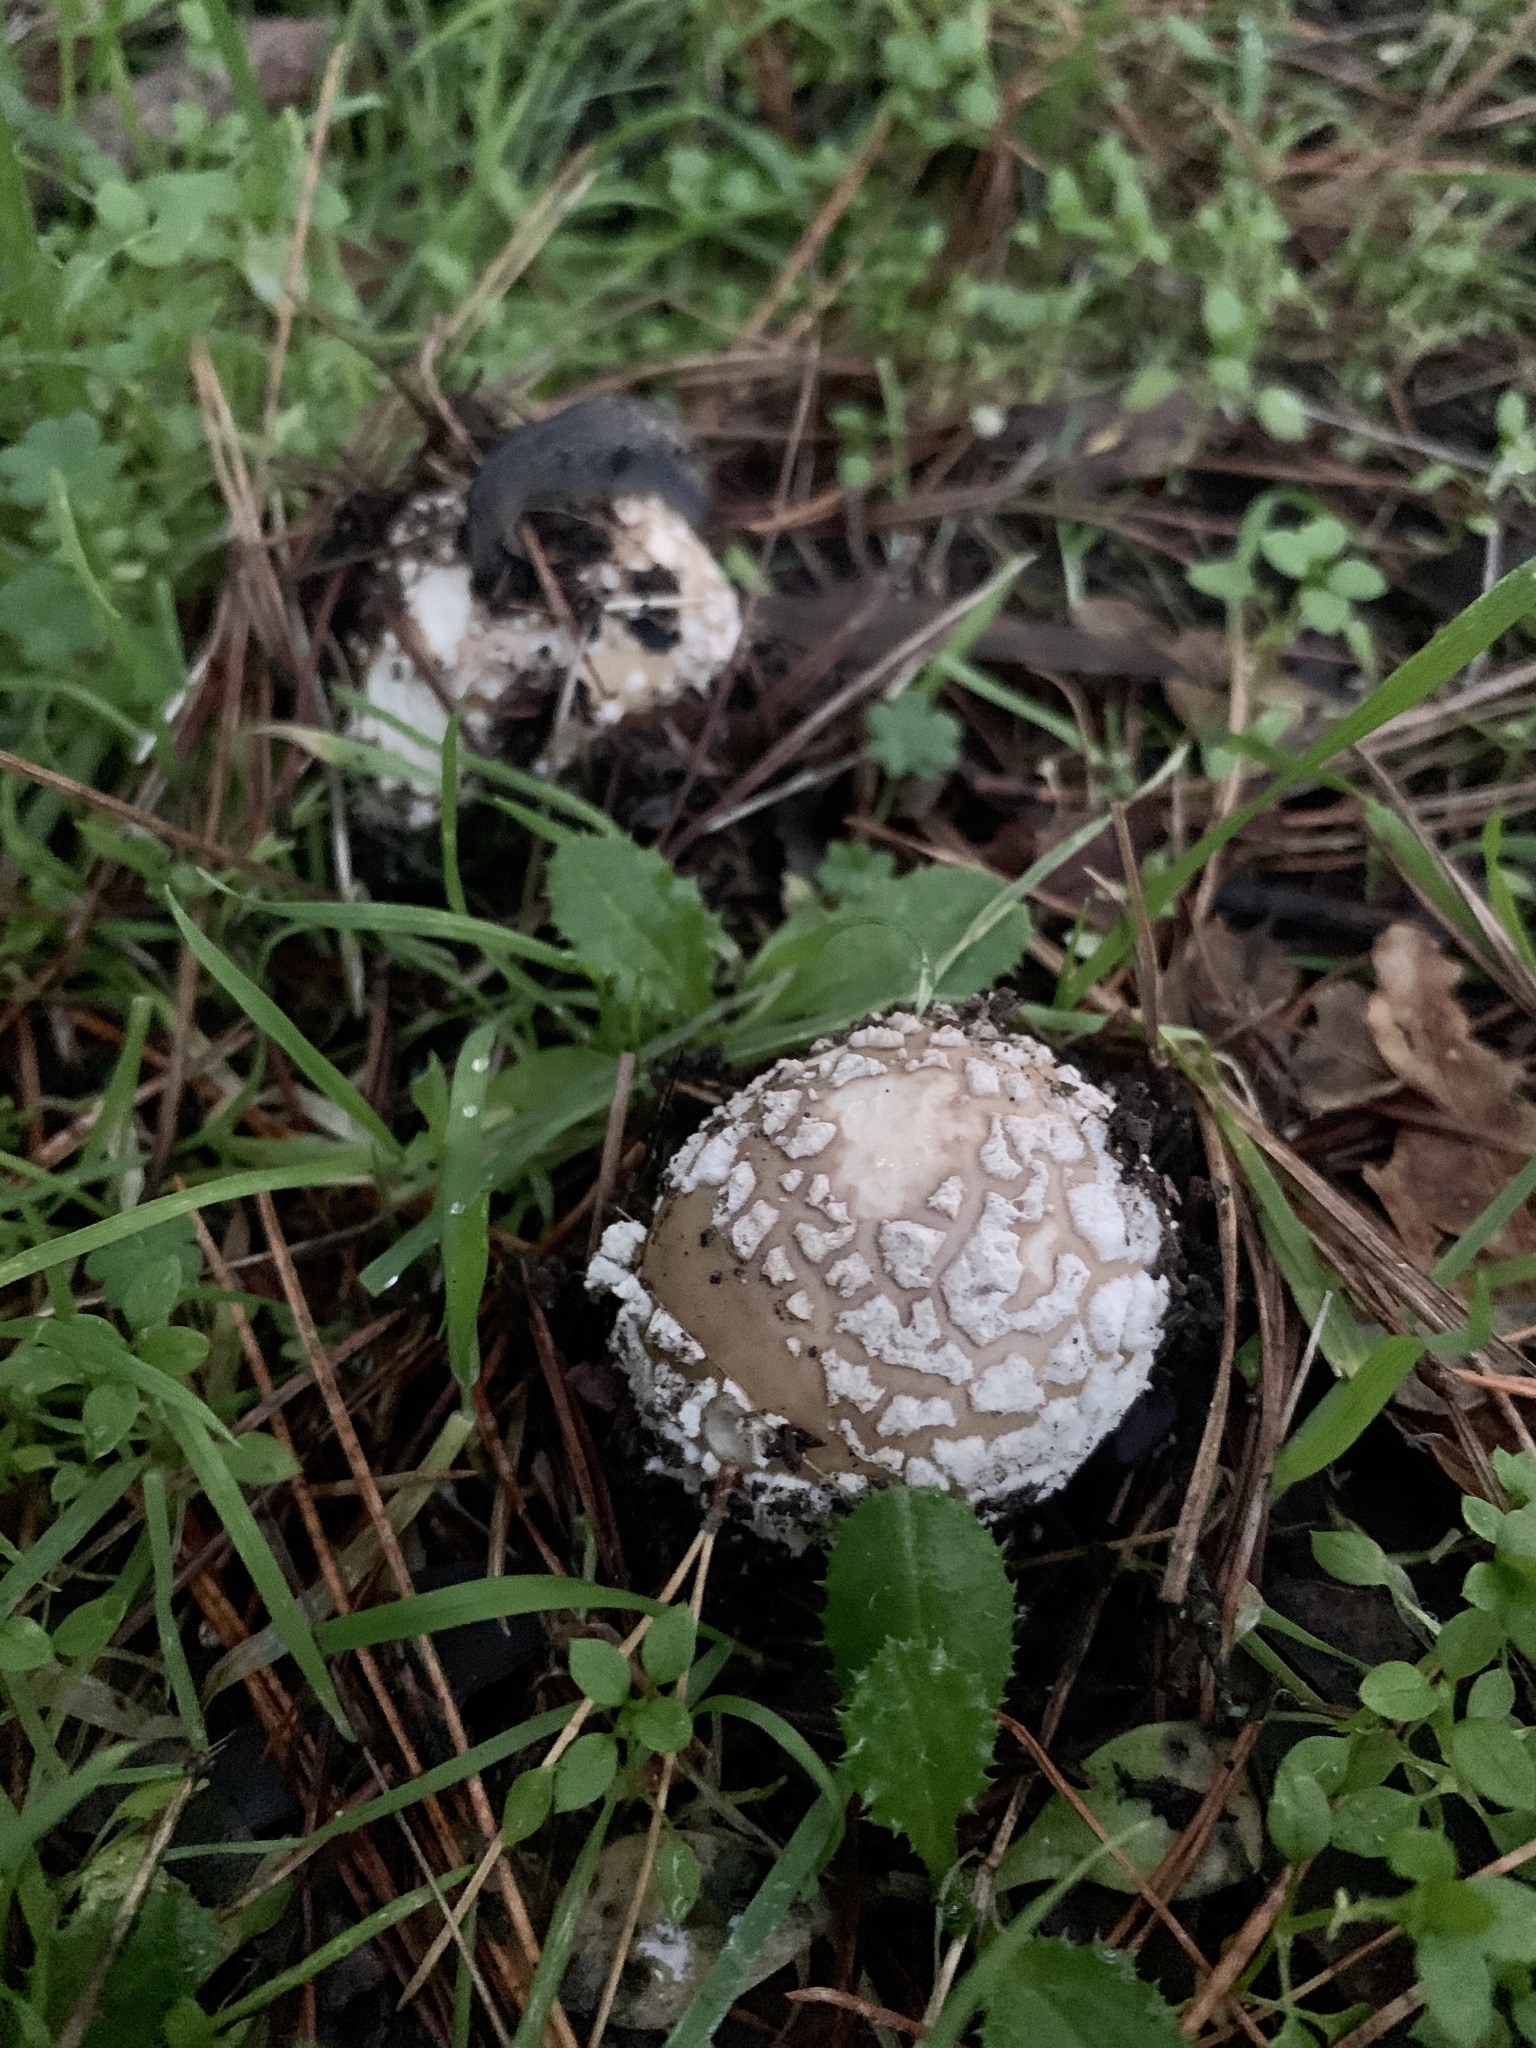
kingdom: Fungi
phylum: Basidiomycota
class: Agaricomycetes
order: Agaricales
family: Amanitaceae
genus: Amanita
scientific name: Amanita pantherina
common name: Panthercap
